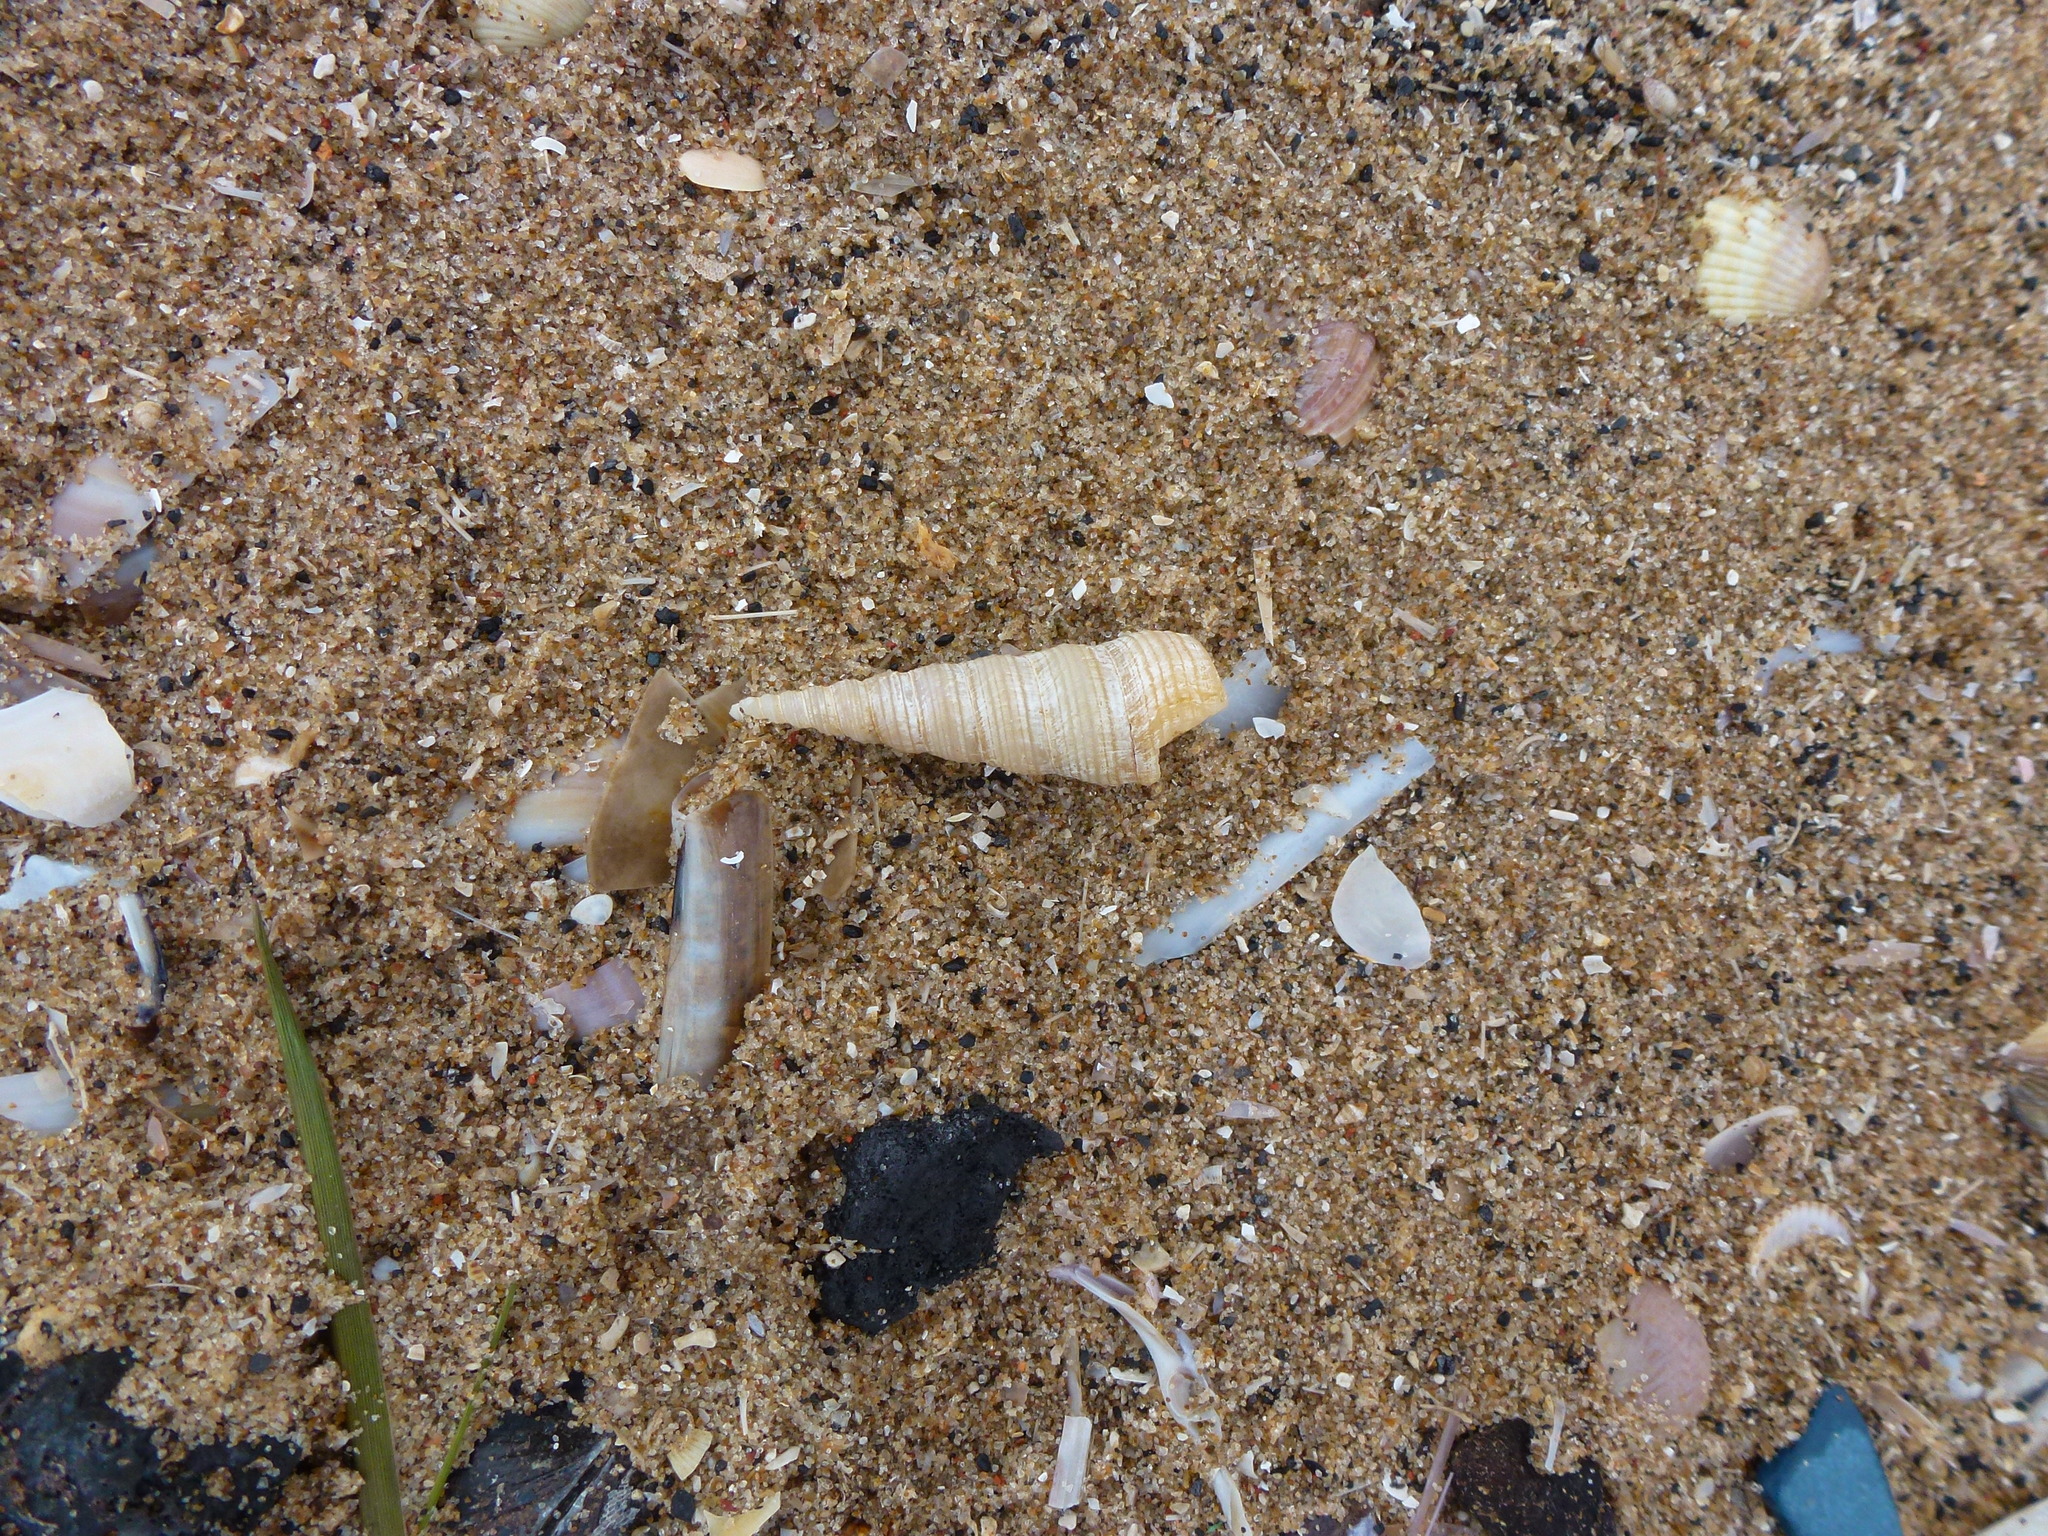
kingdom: Animalia
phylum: Mollusca
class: Gastropoda
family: Turritellidae
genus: Turritellinella
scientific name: Turritellinella tricarinata
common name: Auger shell
